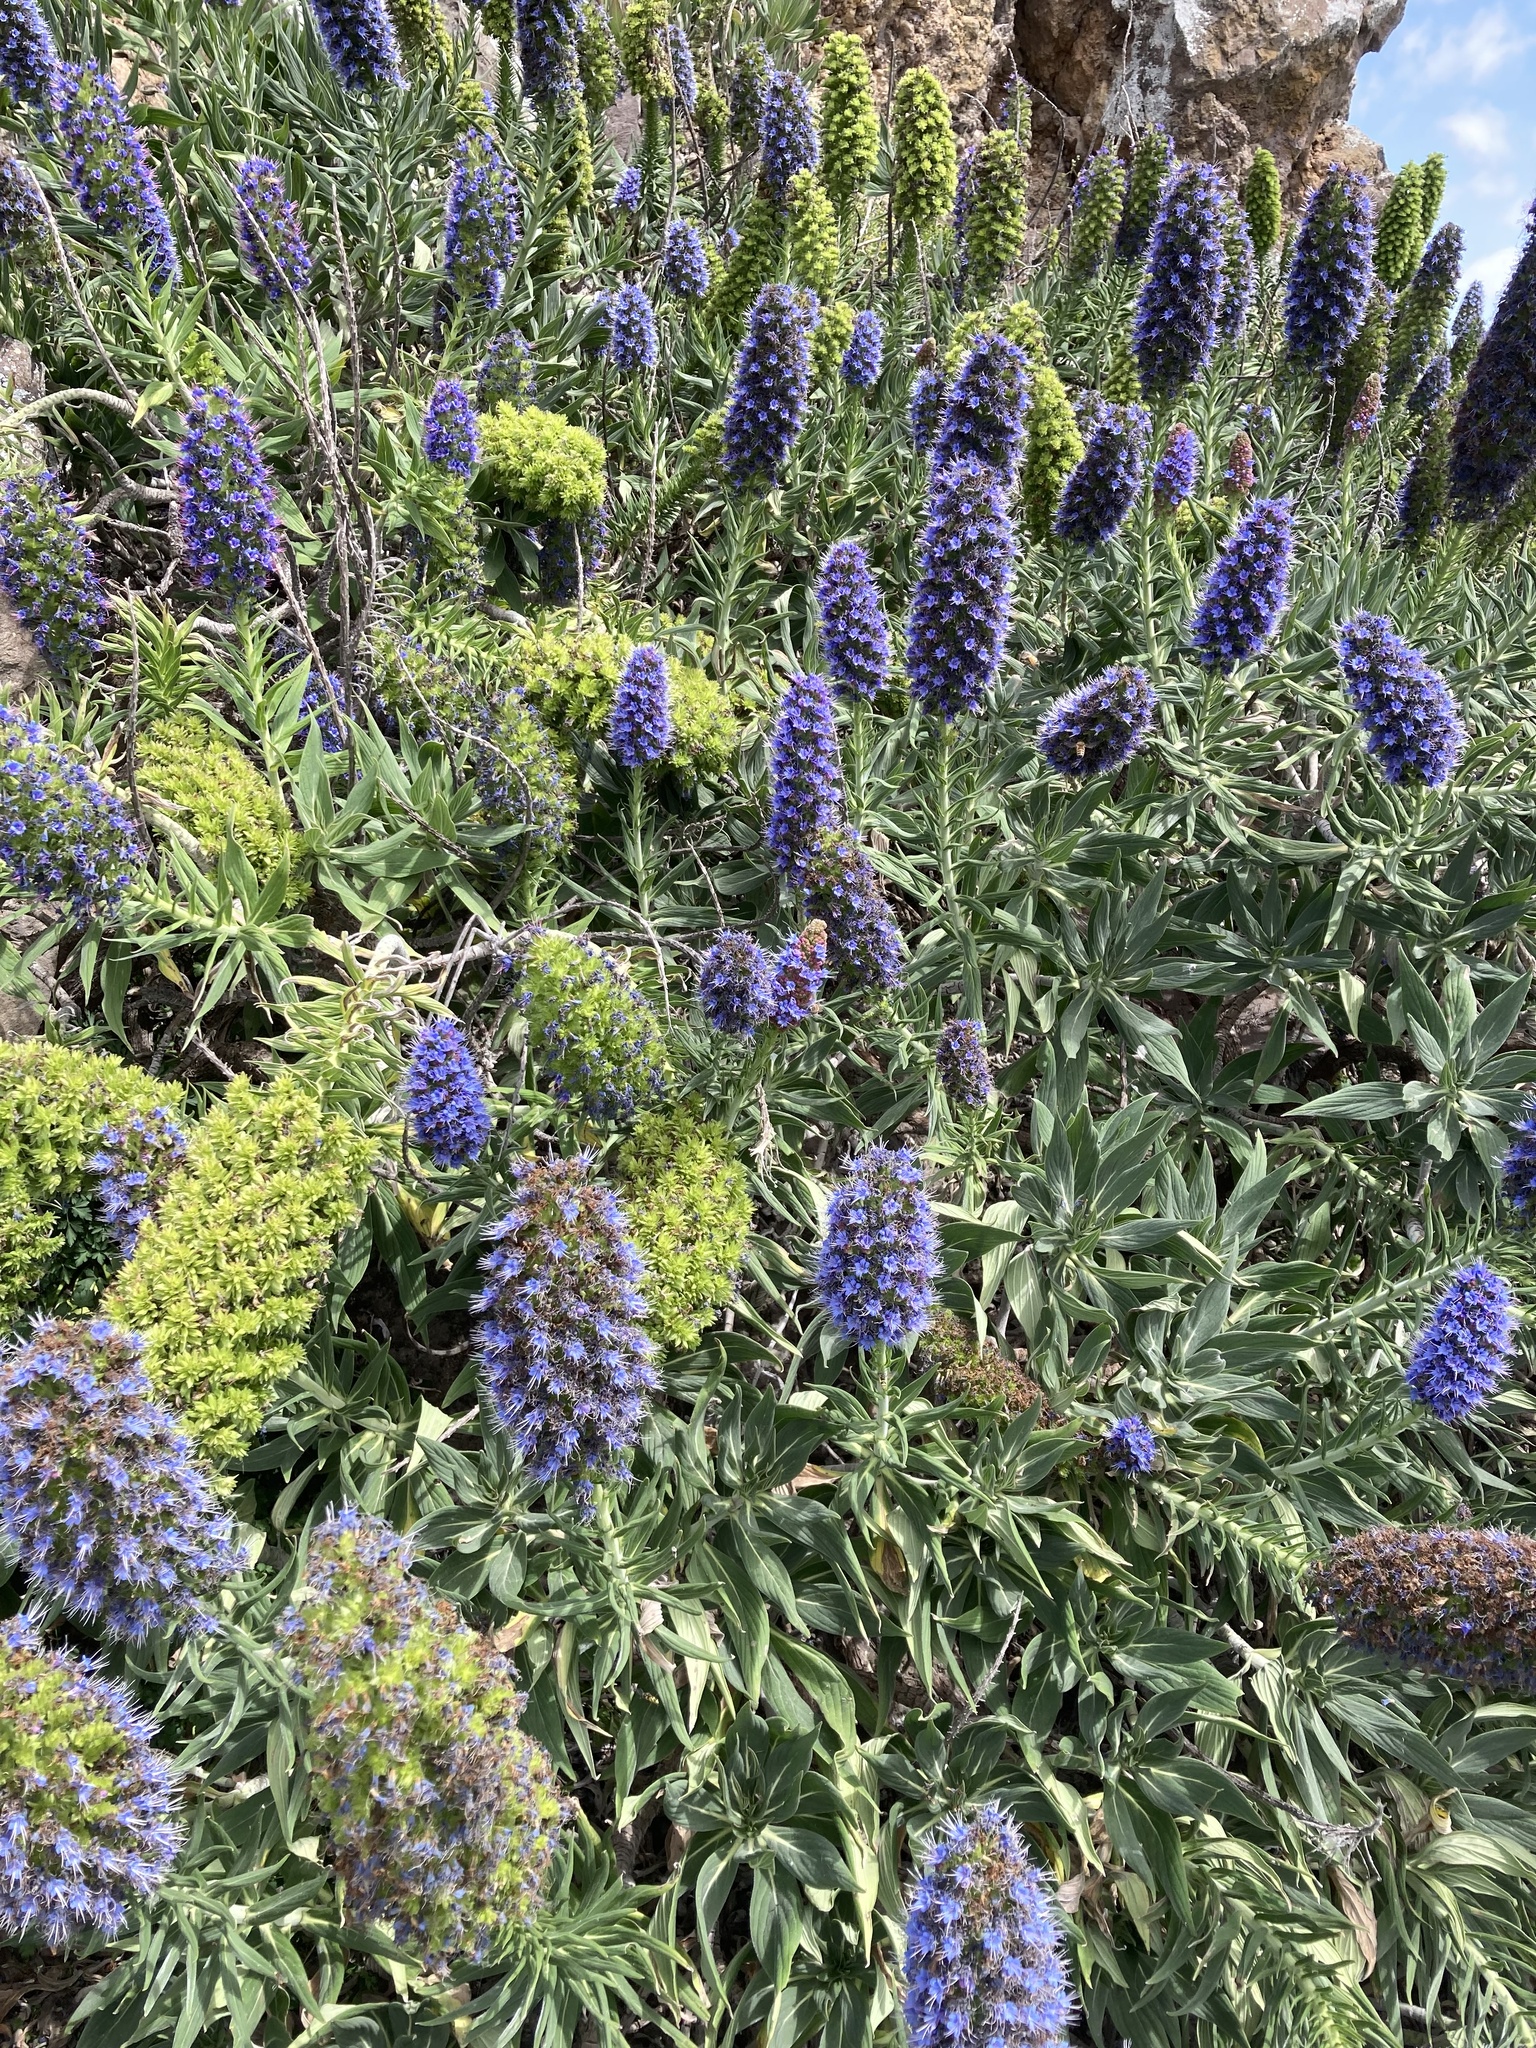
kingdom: Plantae
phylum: Tracheophyta
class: Magnoliopsida
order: Boraginales
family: Boraginaceae
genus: Echium
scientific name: Echium candicans
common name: Pride of madeira
